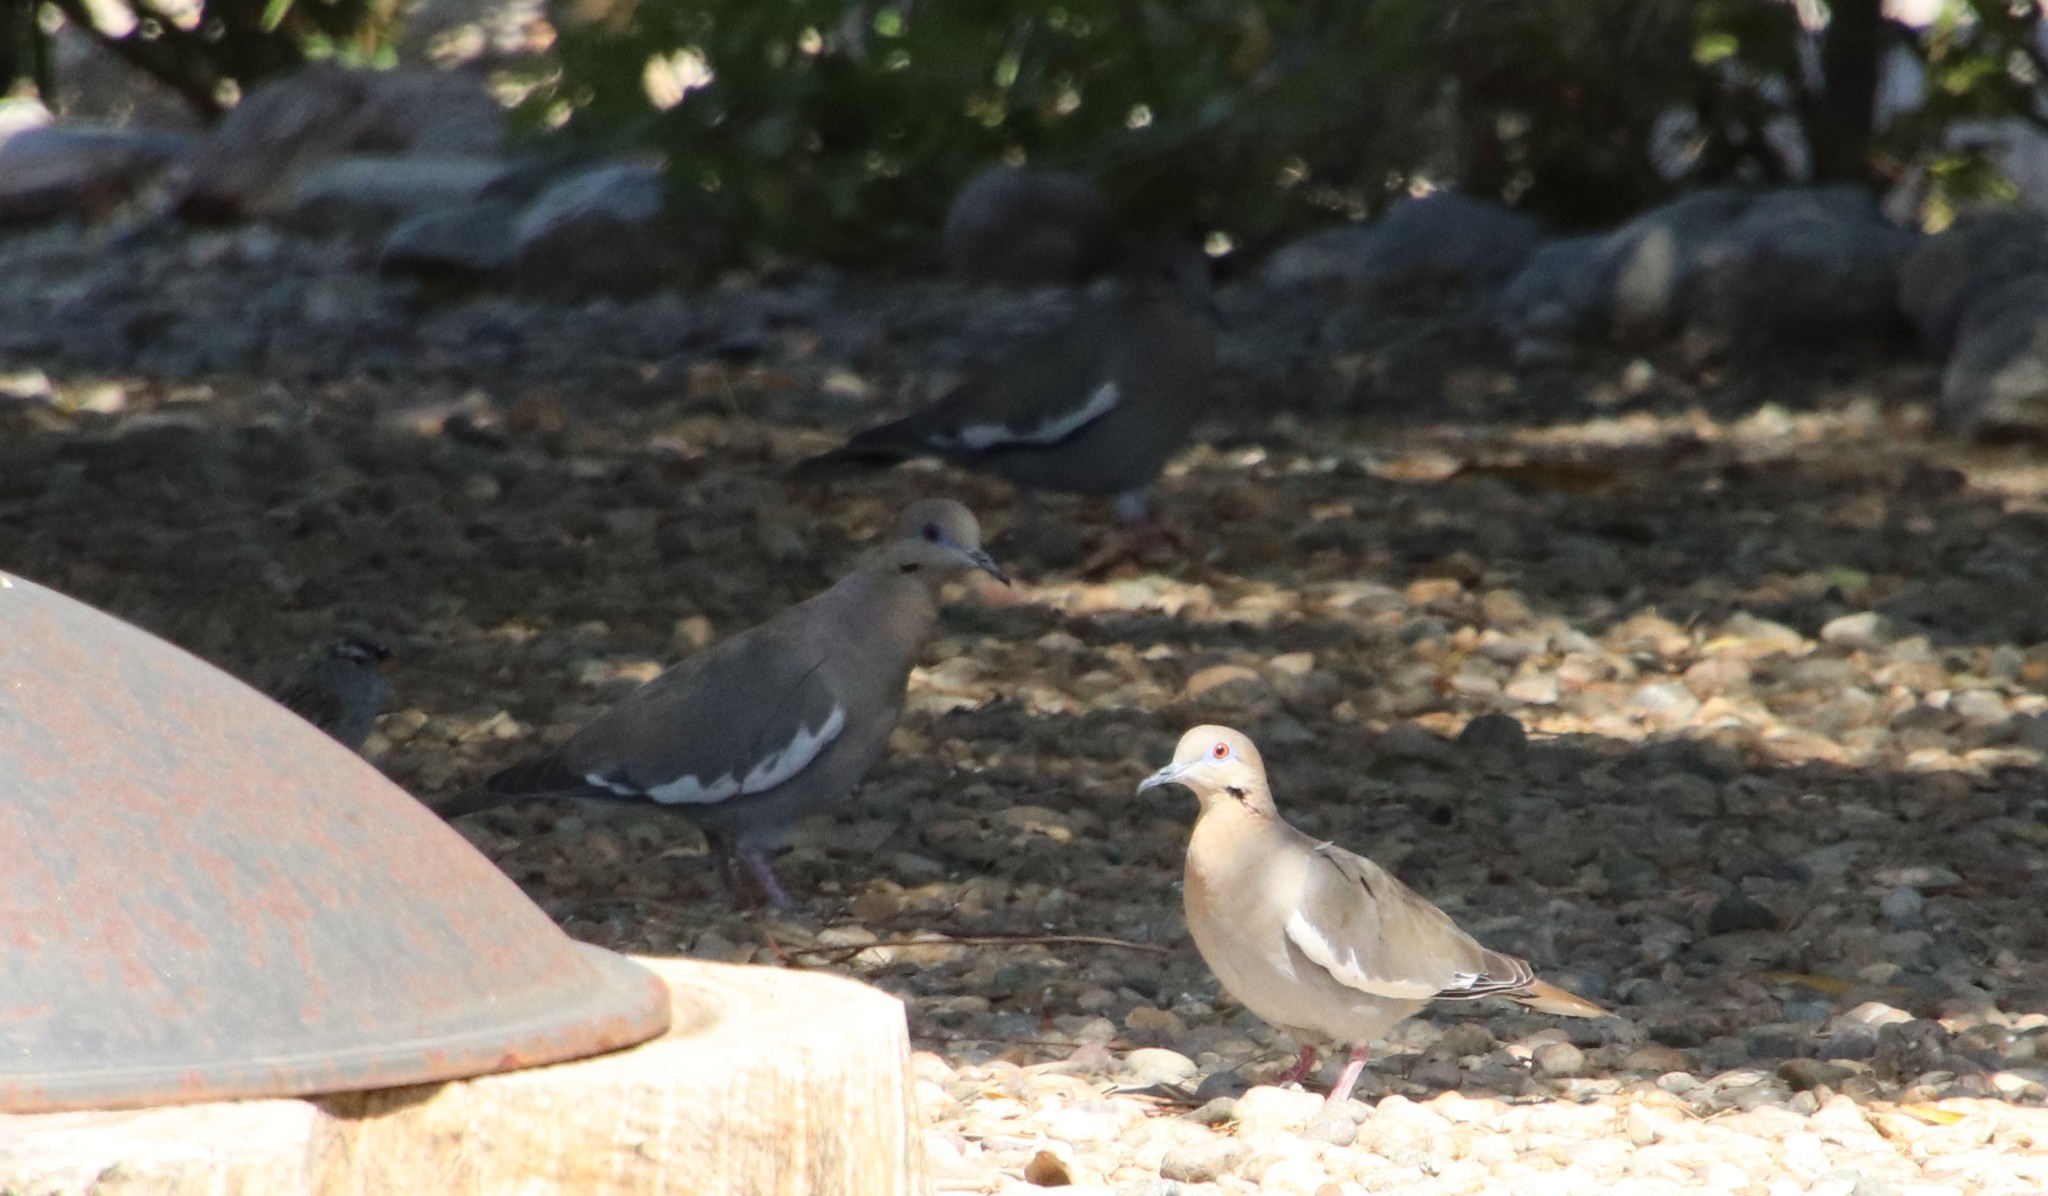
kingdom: Animalia
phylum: Chordata
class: Aves
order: Columbiformes
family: Columbidae
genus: Zenaida
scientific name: Zenaida asiatica
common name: White-winged dove
